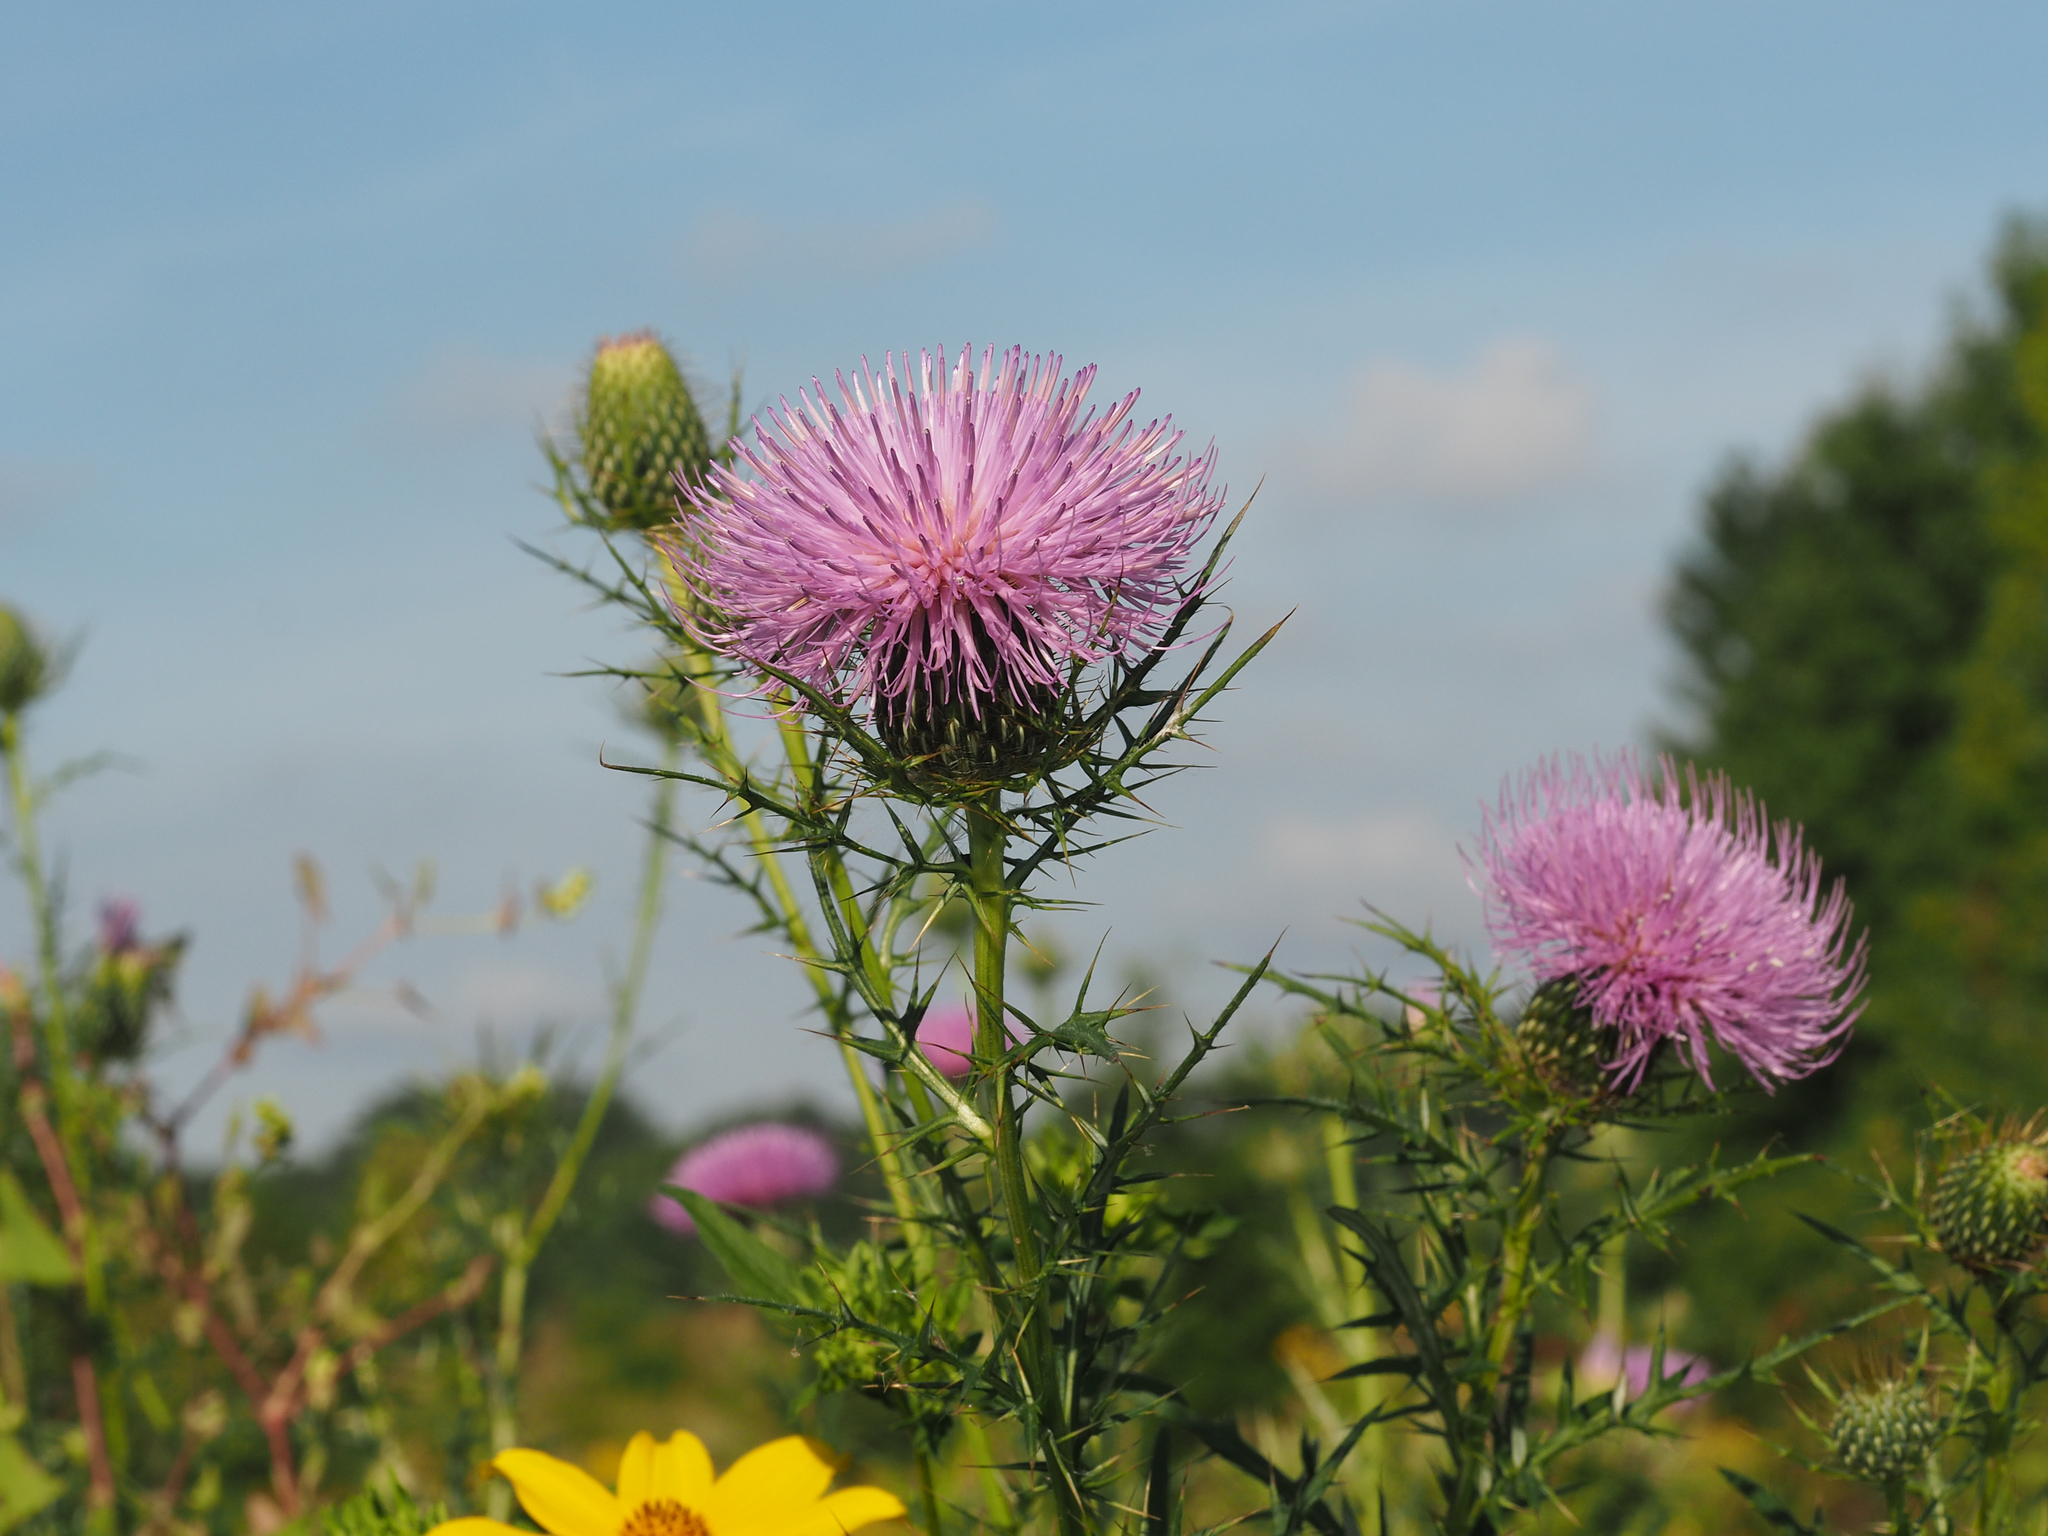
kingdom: Plantae
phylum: Tracheophyta
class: Magnoliopsida
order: Asterales
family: Asteraceae
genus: Cirsium
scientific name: Cirsium discolor
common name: Field thistle
